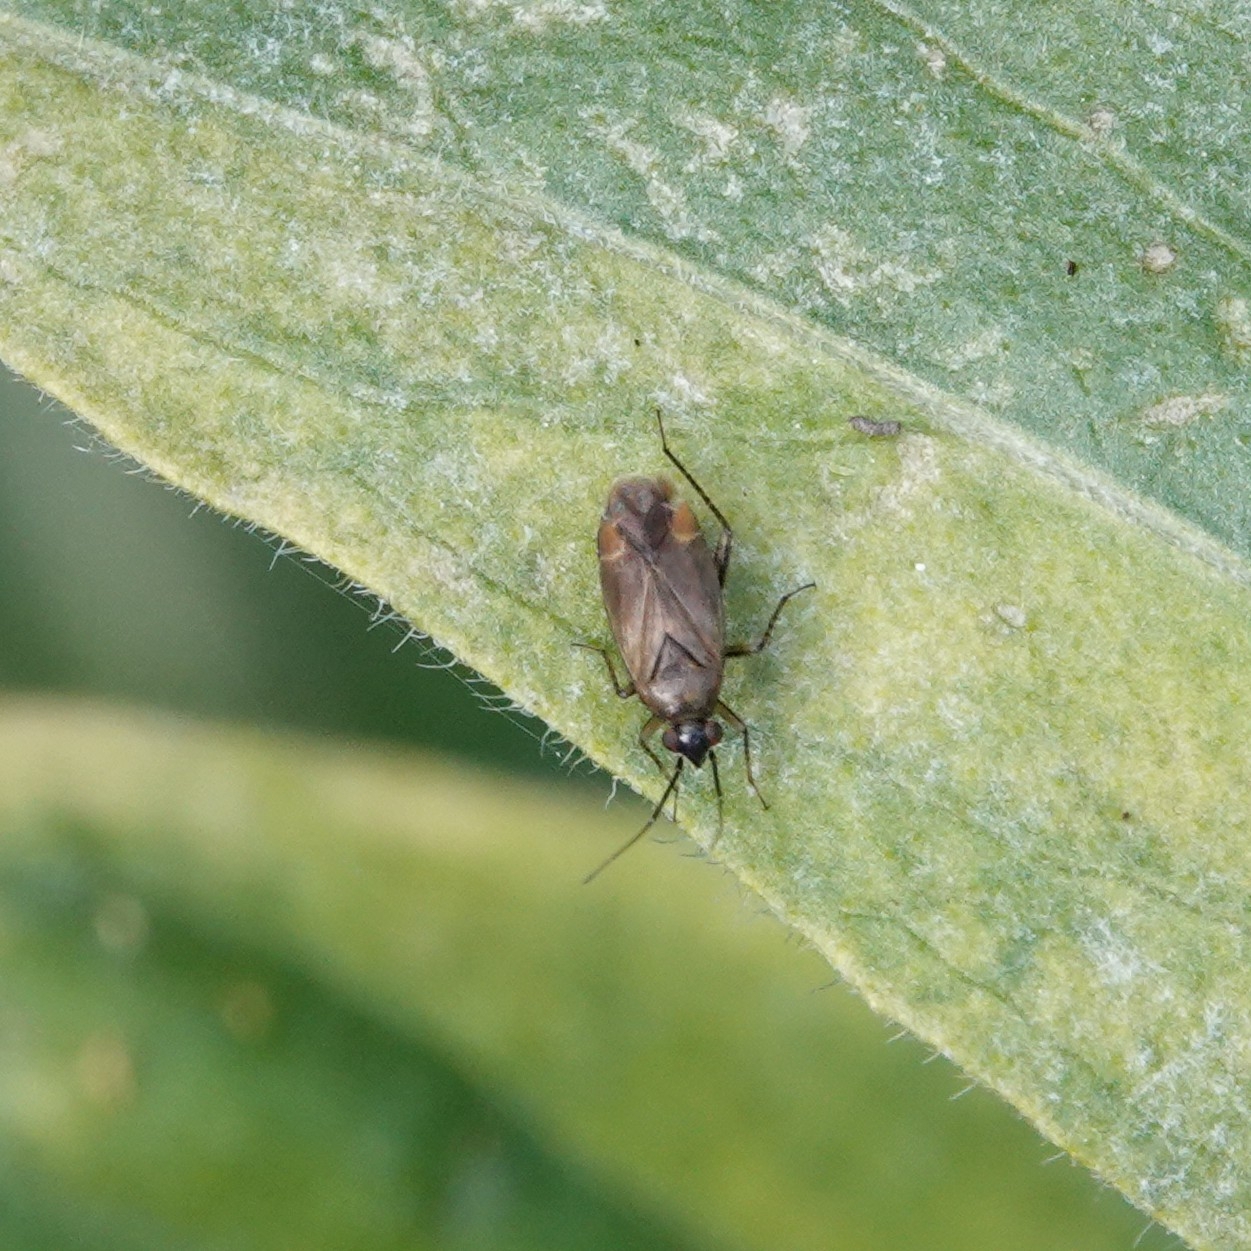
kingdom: Animalia
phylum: Arthropoda
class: Insecta
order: Hemiptera
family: Miridae
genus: Plagiognathus
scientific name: Plagiognathus arbustorum
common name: Plant bug
